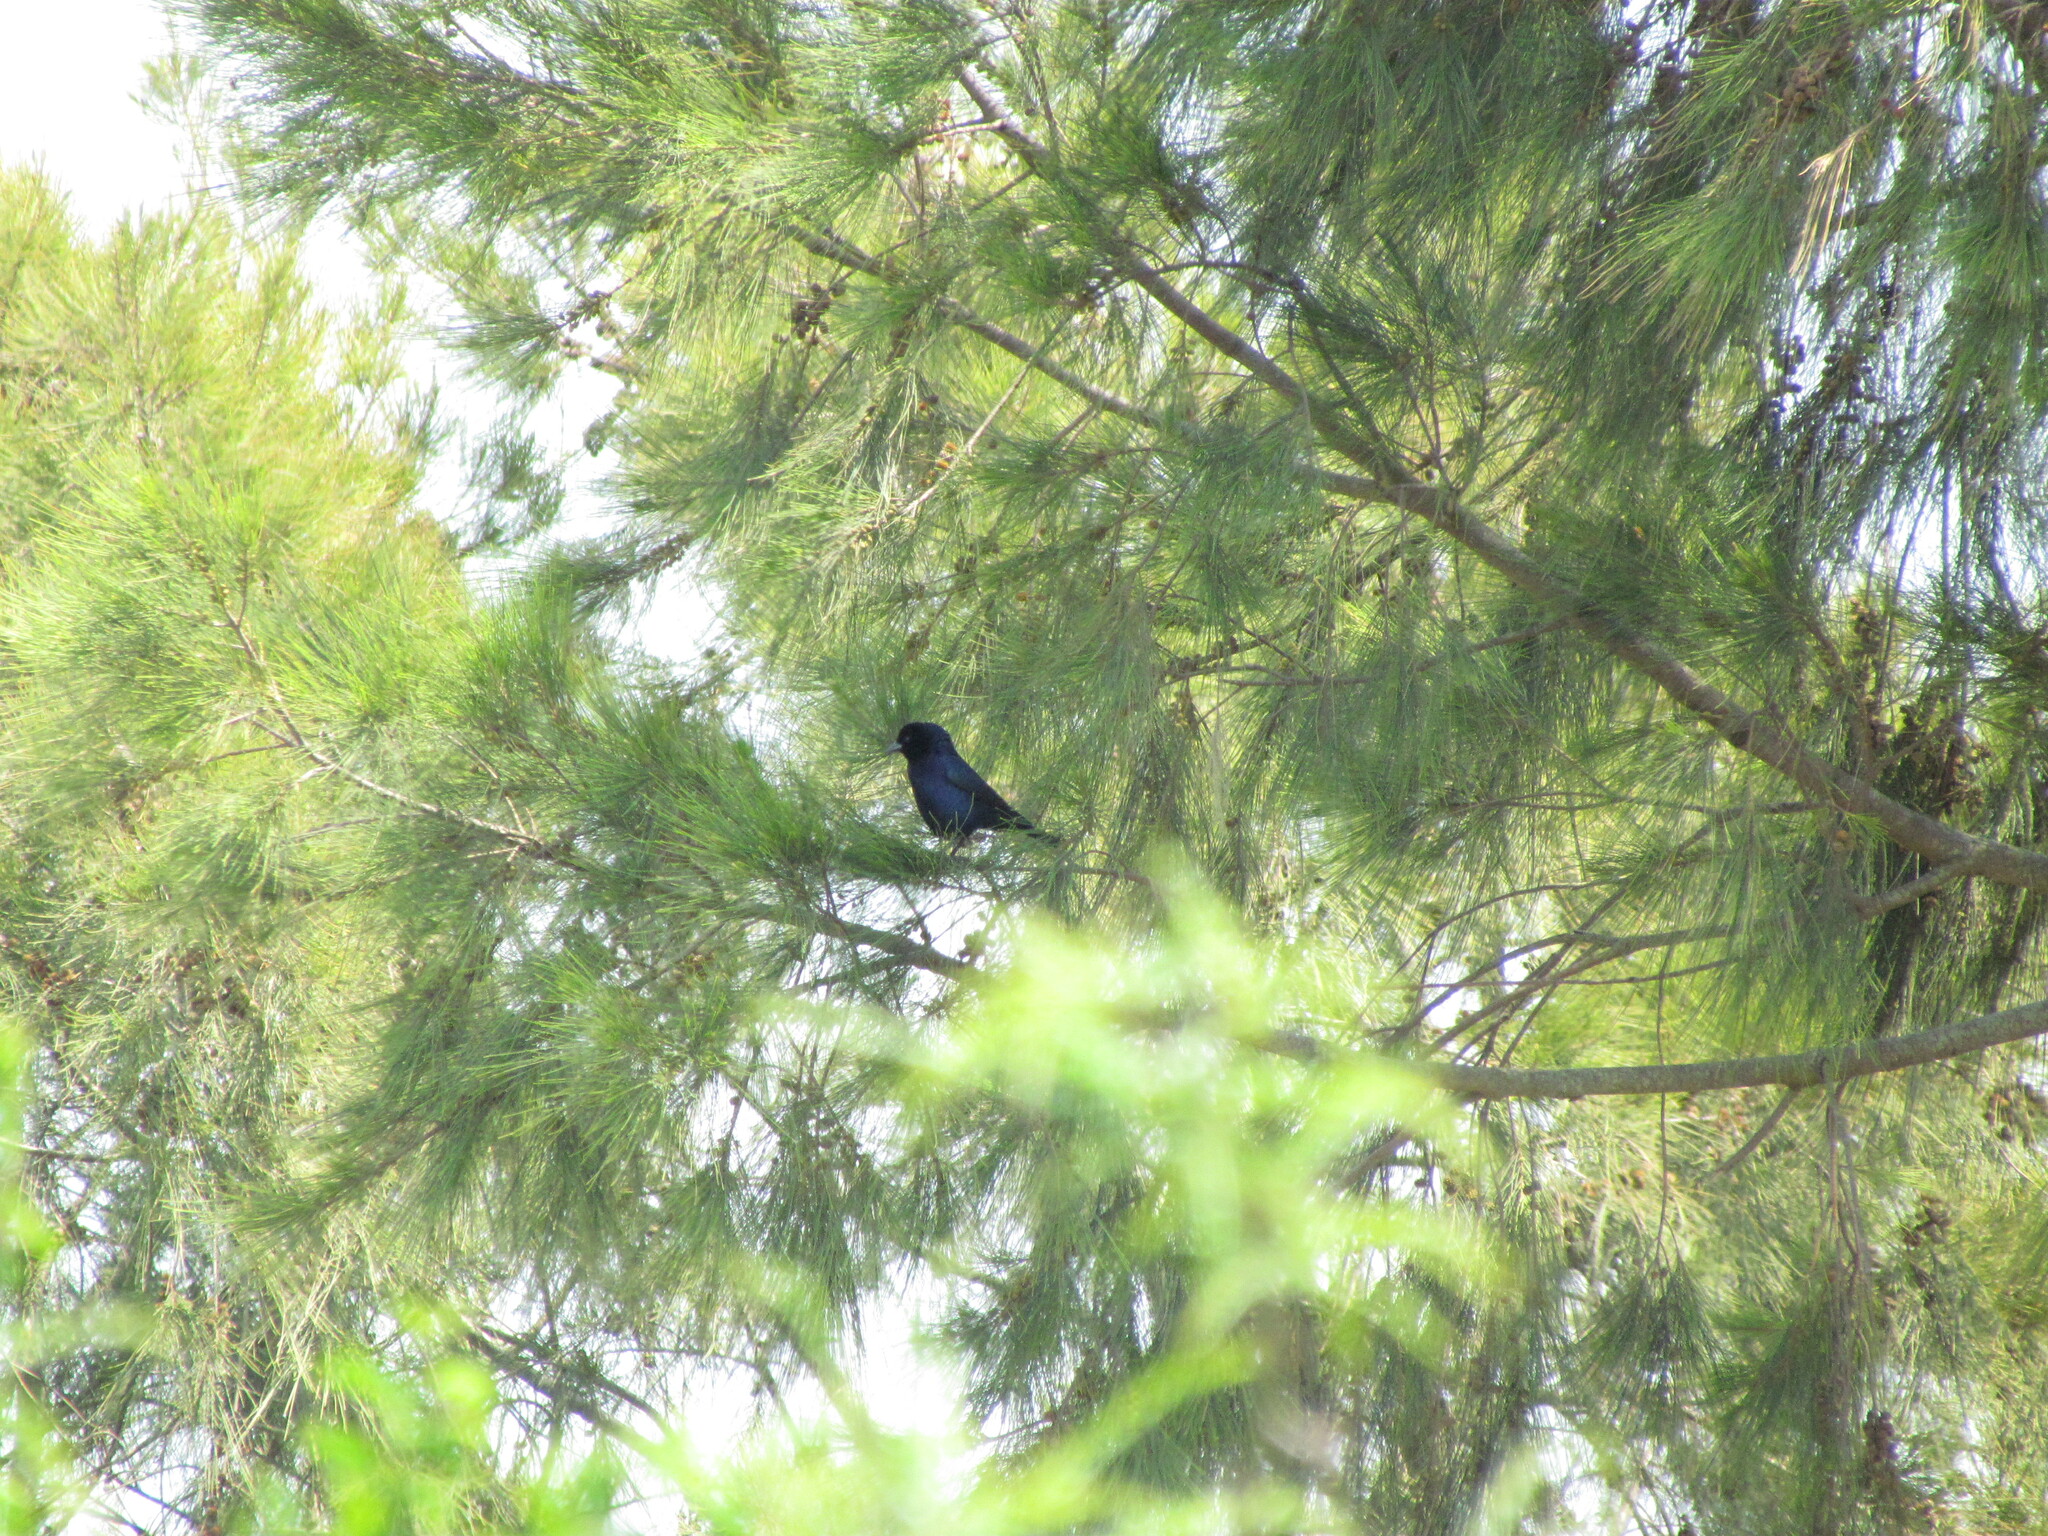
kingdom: Animalia
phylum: Chordata
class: Aves
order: Passeriformes
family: Icteridae
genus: Molothrus
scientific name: Molothrus bonariensis
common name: Shiny cowbird
